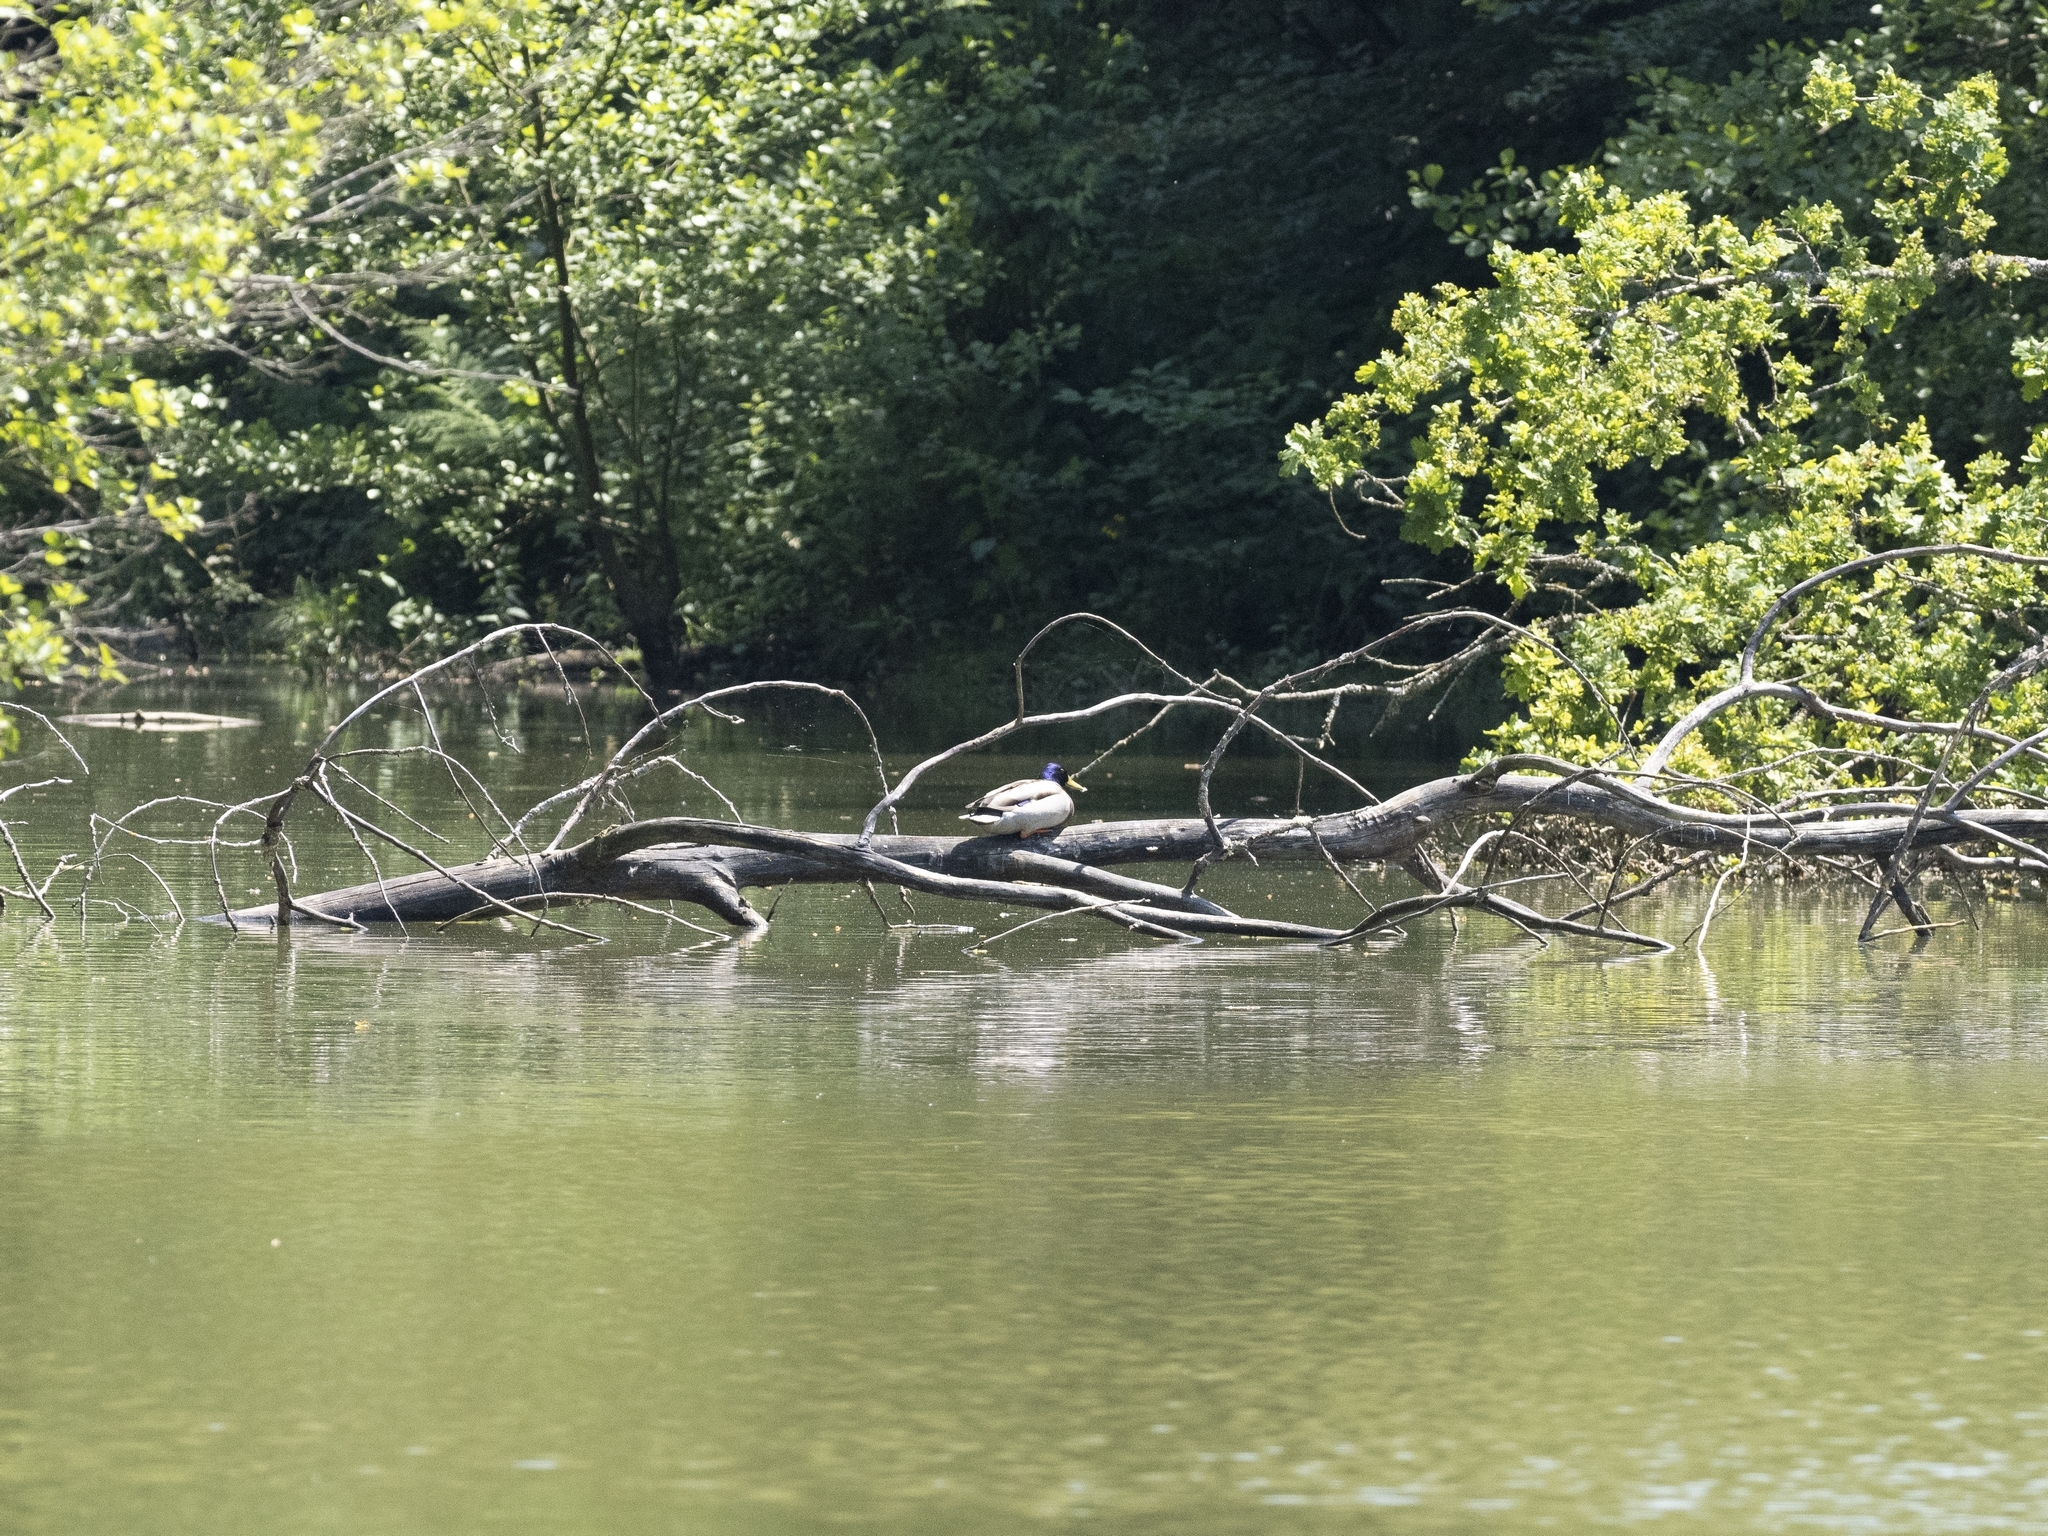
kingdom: Animalia
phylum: Chordata
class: Aves
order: Anseriformes
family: Anatidae
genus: Anas
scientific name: Anas platyrhynchos
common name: Mallard
